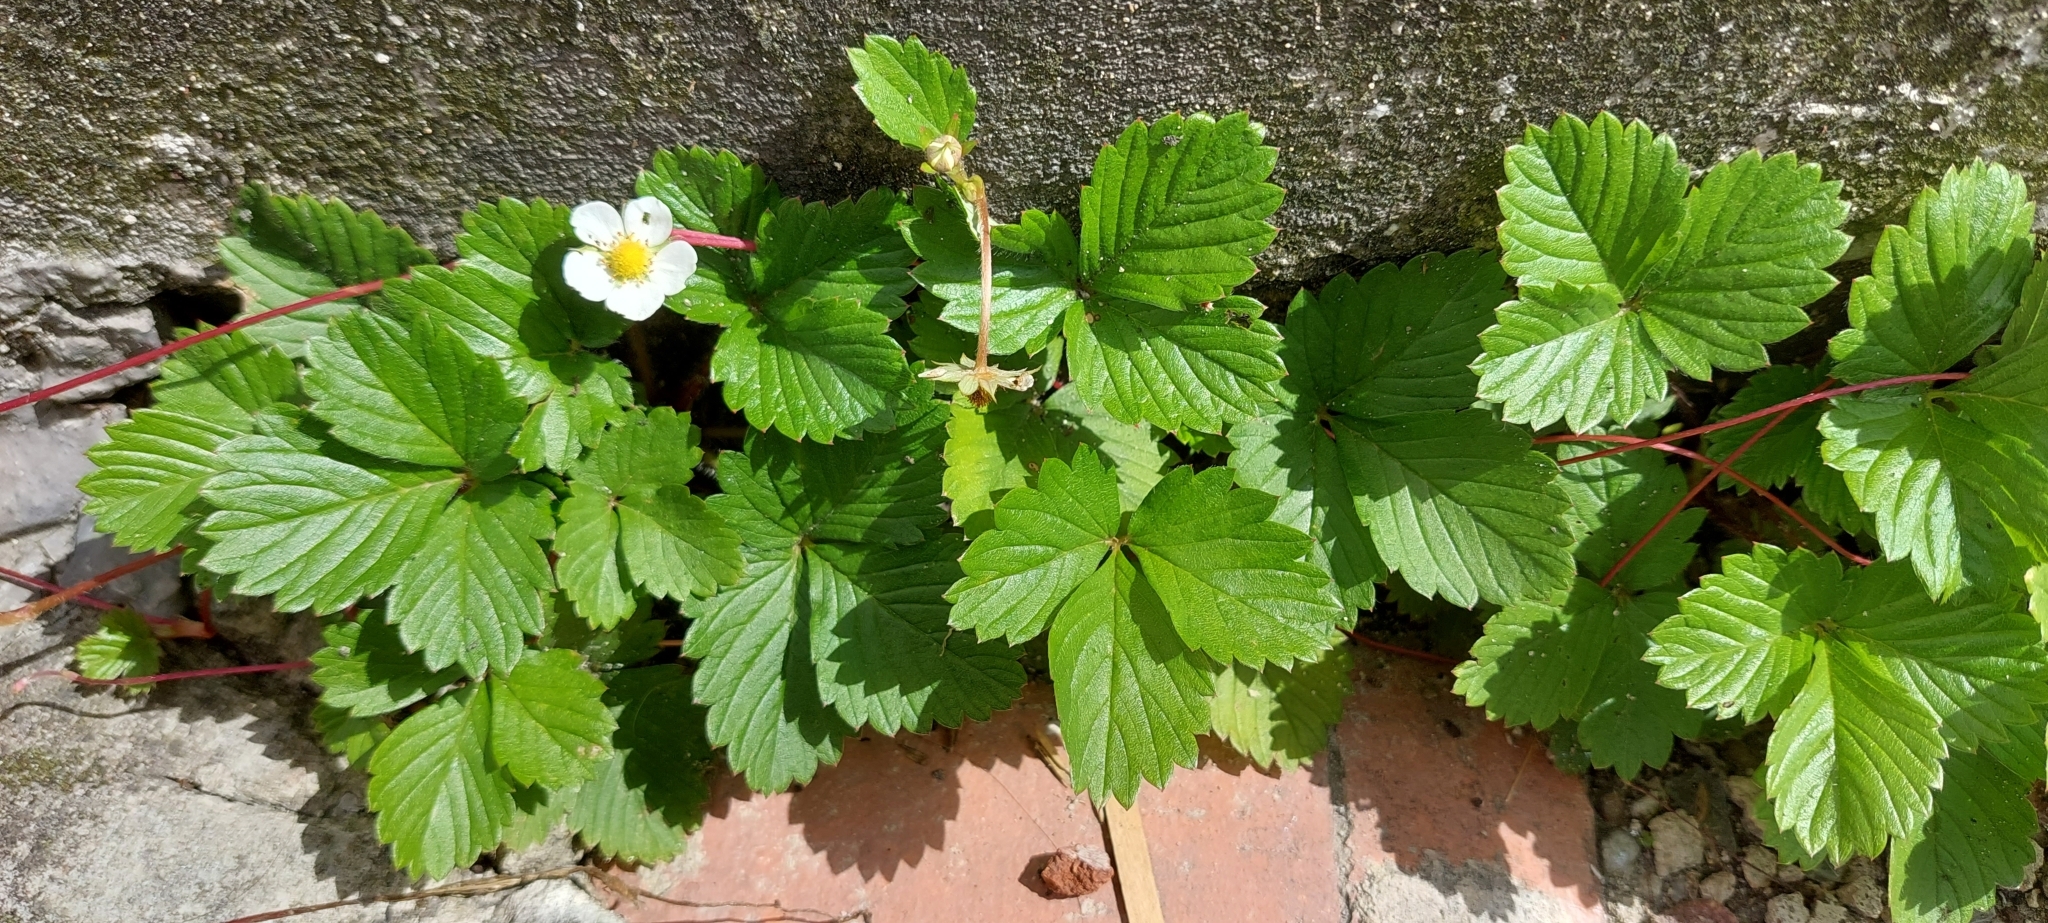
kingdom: Plantae
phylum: Tracheophyta
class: Magnoliopsida
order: Rosales
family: Rosaceae
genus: Fragaria
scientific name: Fragaria vesca
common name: Wild strawberry
